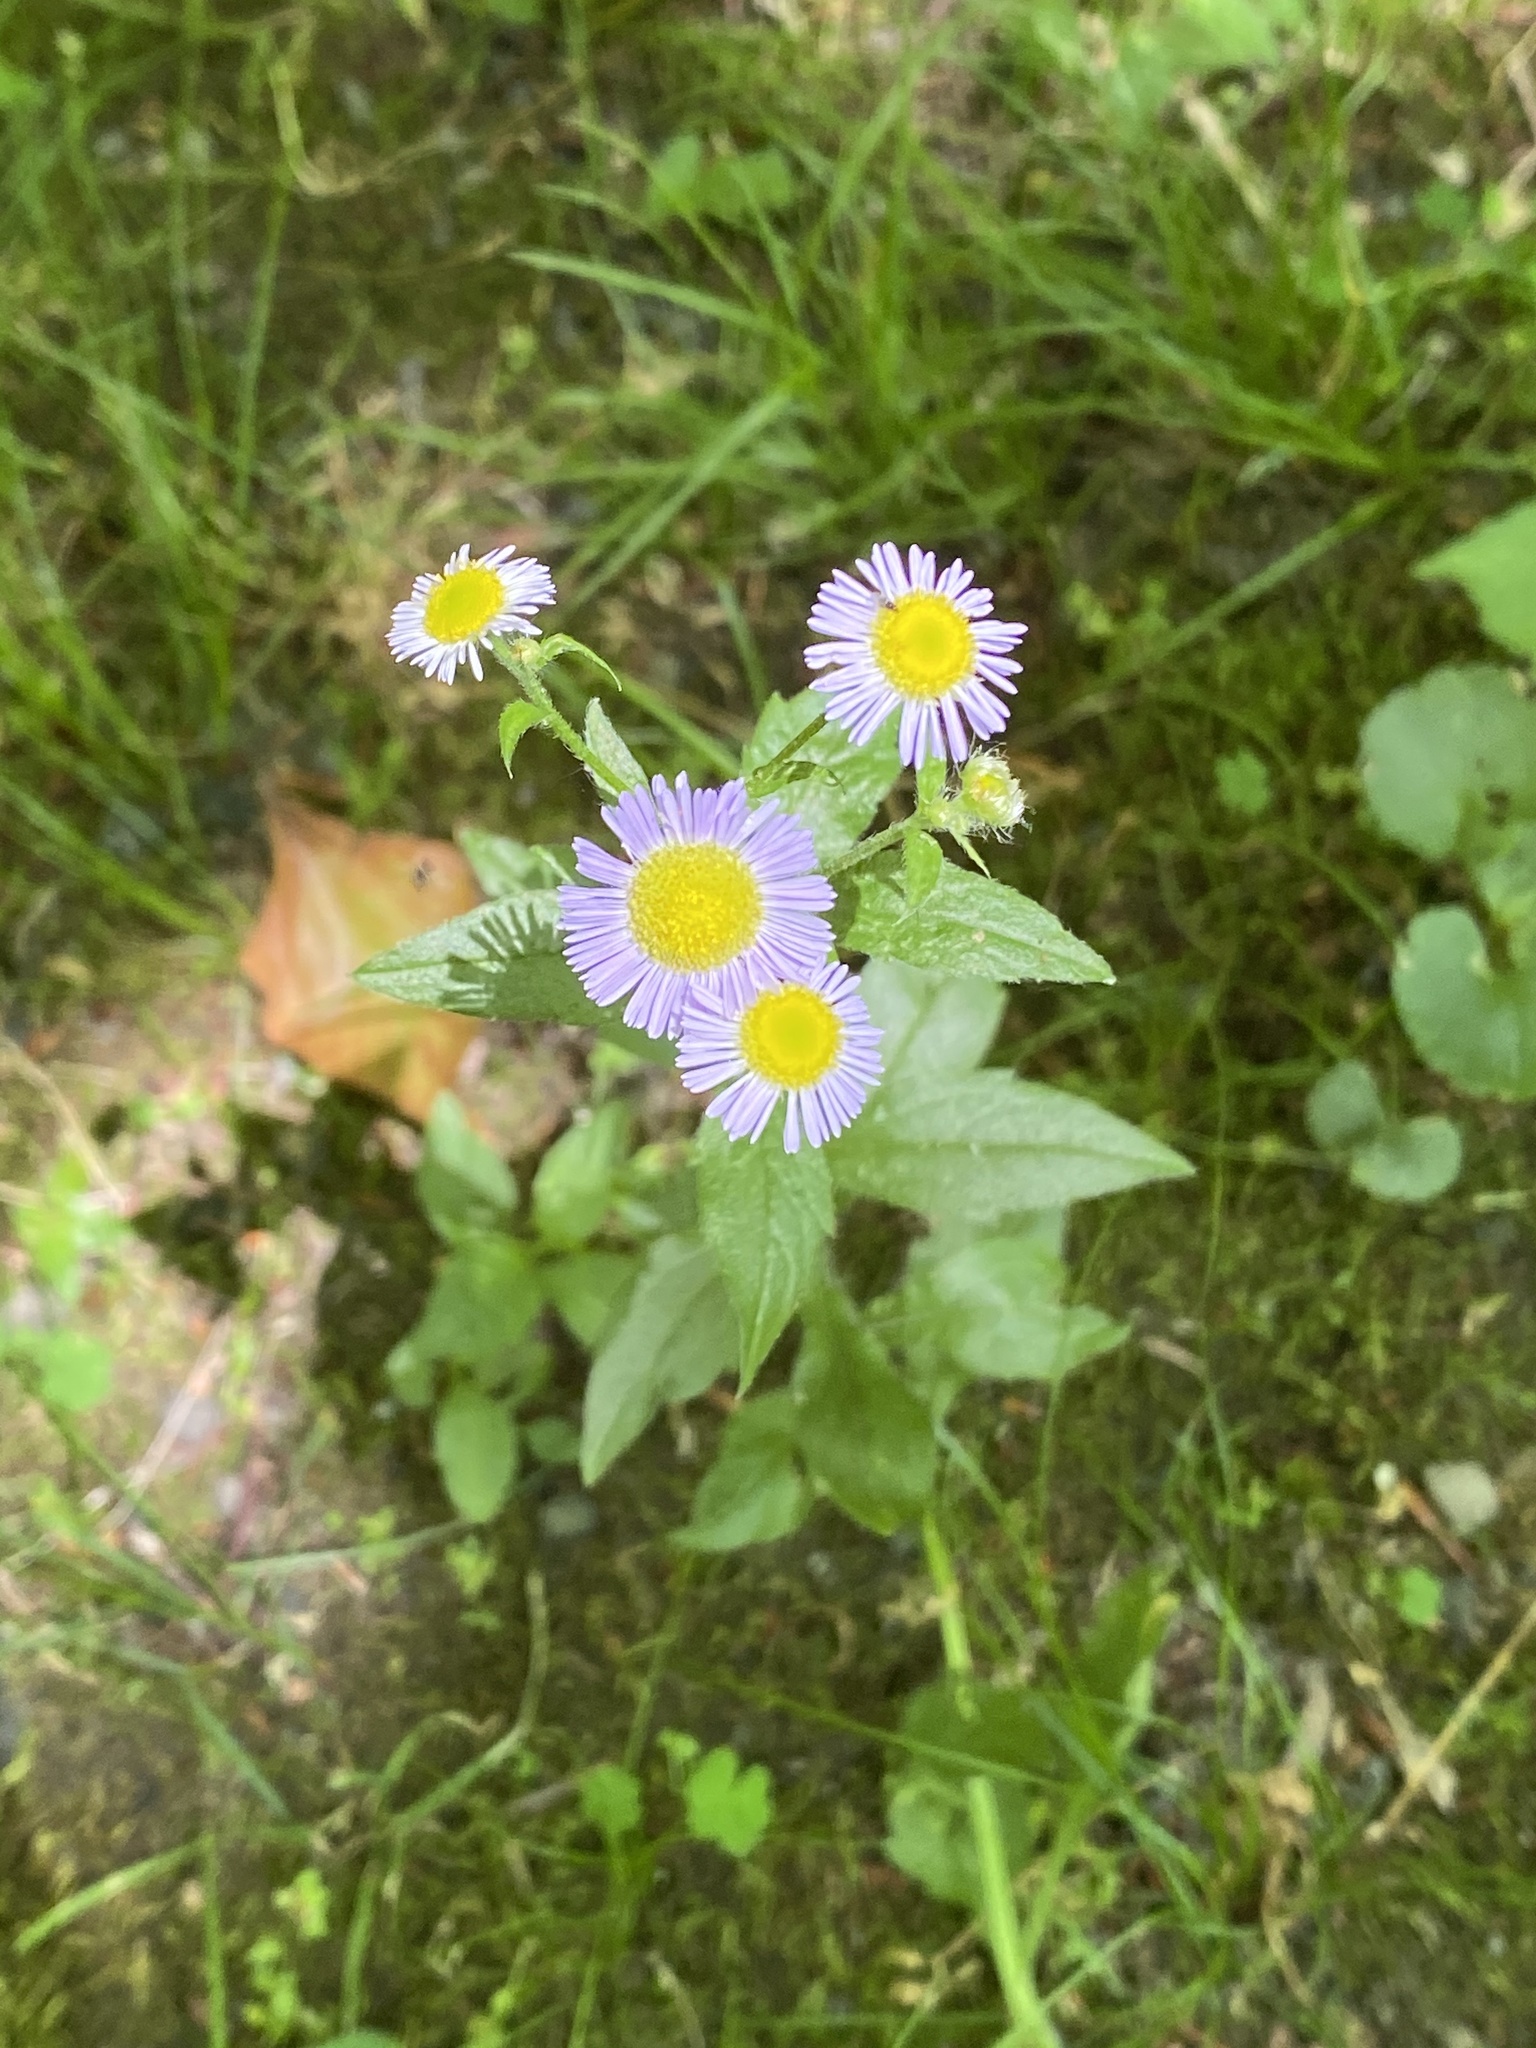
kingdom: Plantae
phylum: Tracheophyta
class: Magnoliopsida
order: Asterales
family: Asteraceae
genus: Erigeron
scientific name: Erigeron annuus
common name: Tall fleabane
